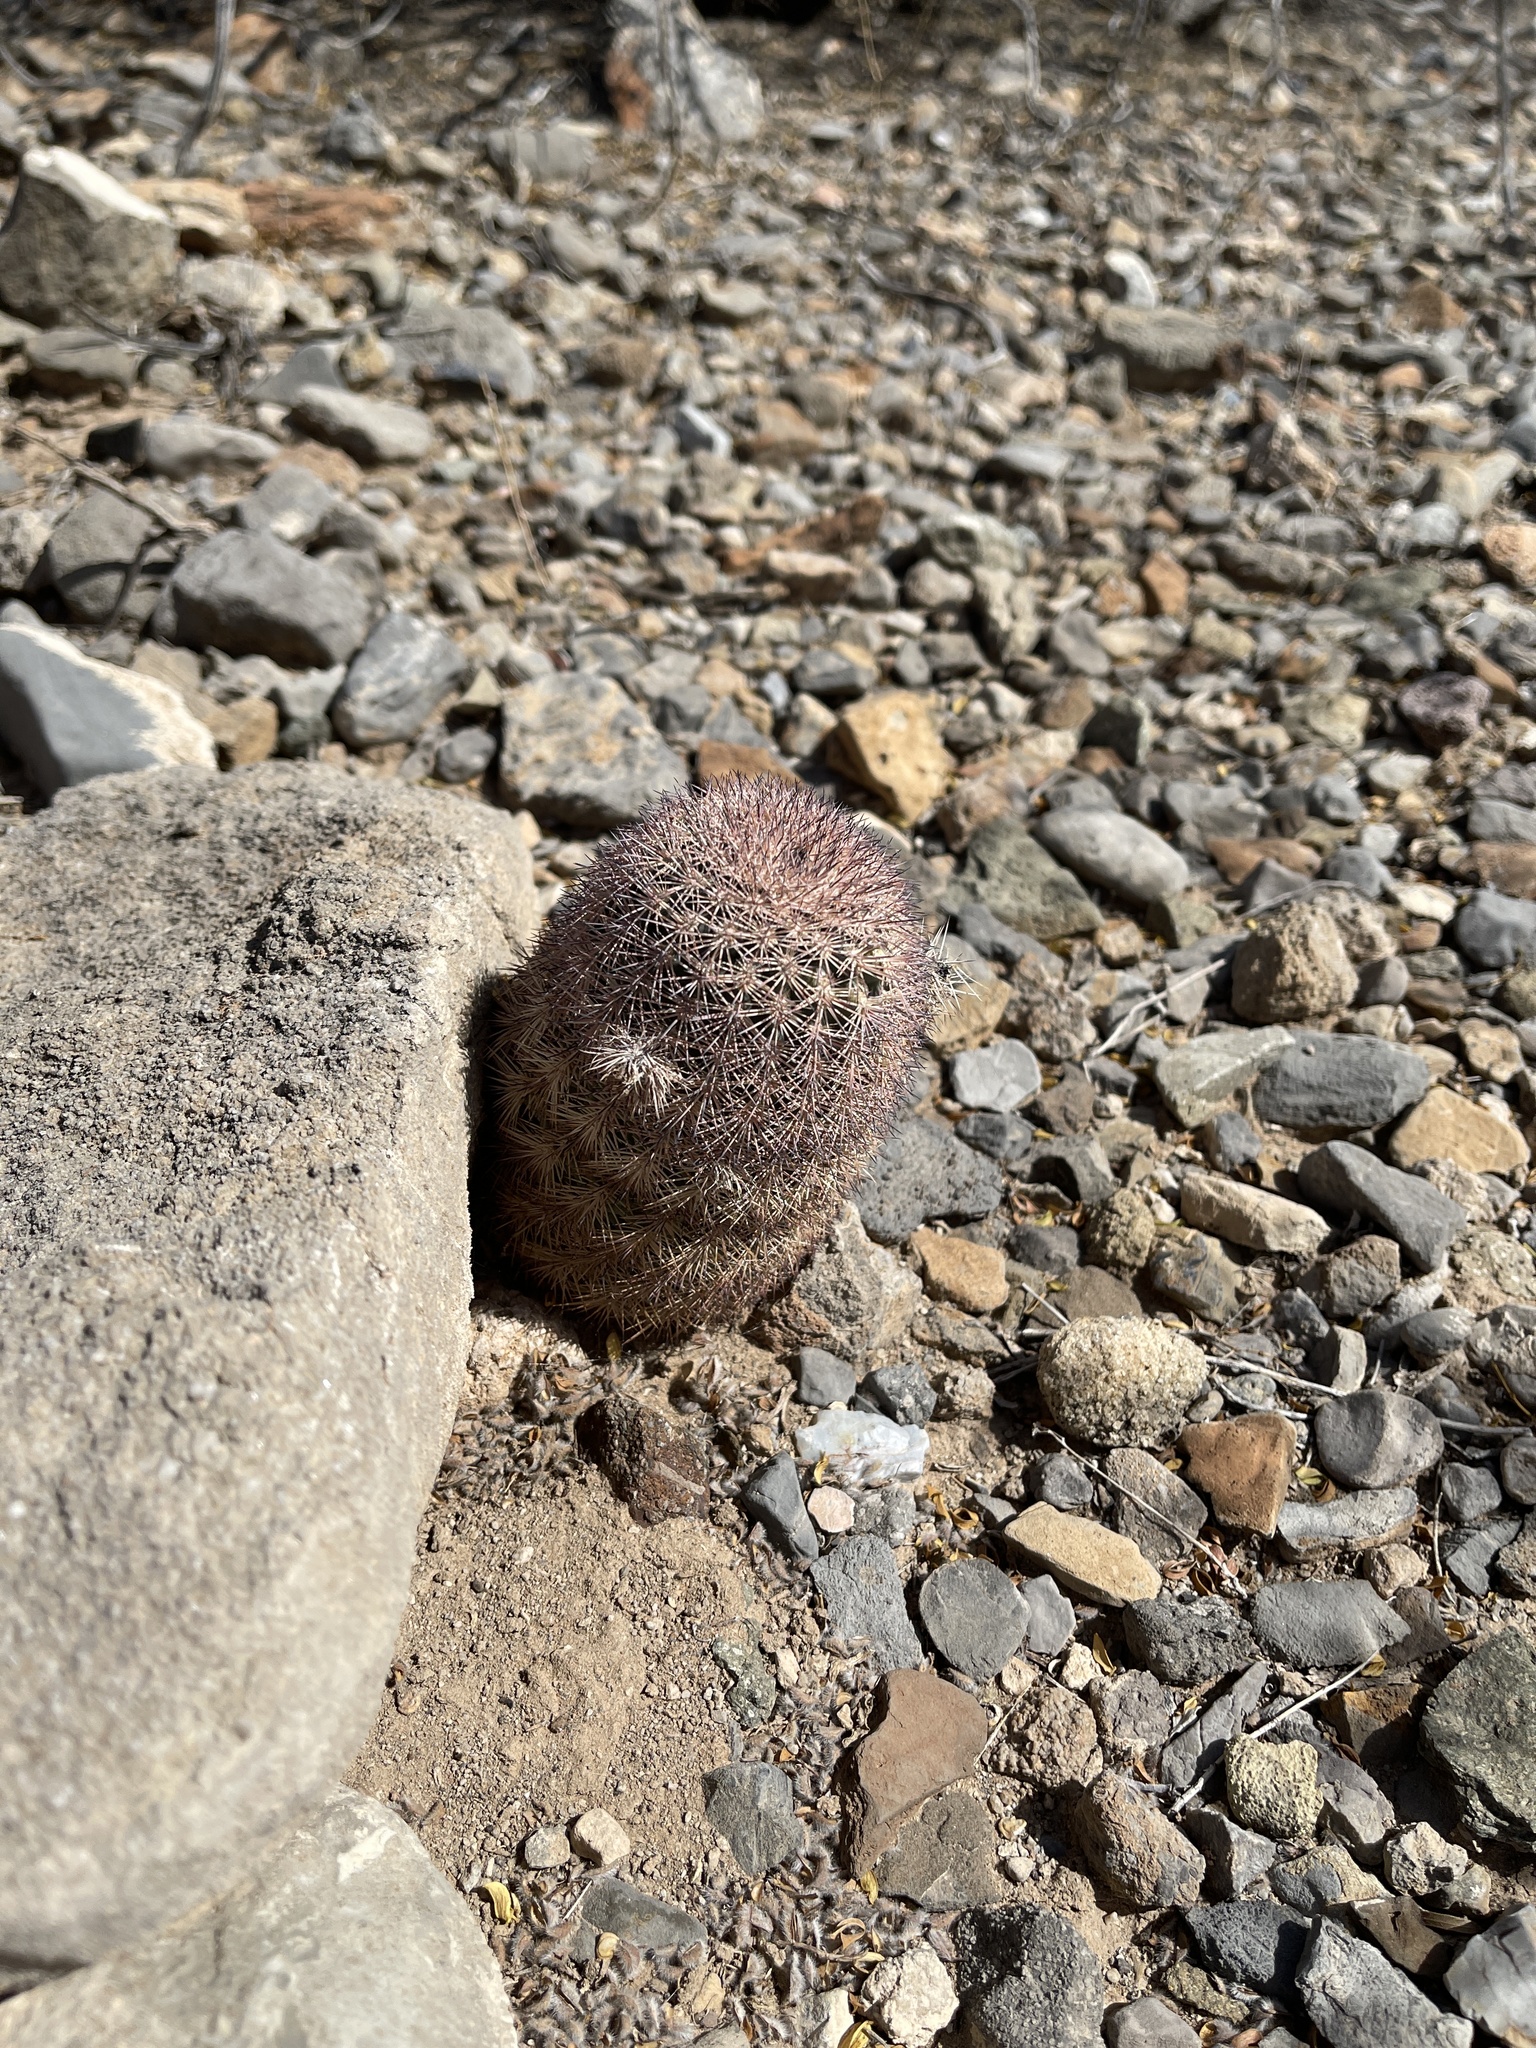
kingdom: Plantae
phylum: Tracheophyta
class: Magnoliopsida
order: Caryophyllales
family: Cactaceae
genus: Echinocereus
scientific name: Echinocereus dasyacanthus
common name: Spiny hedgehog cactus
